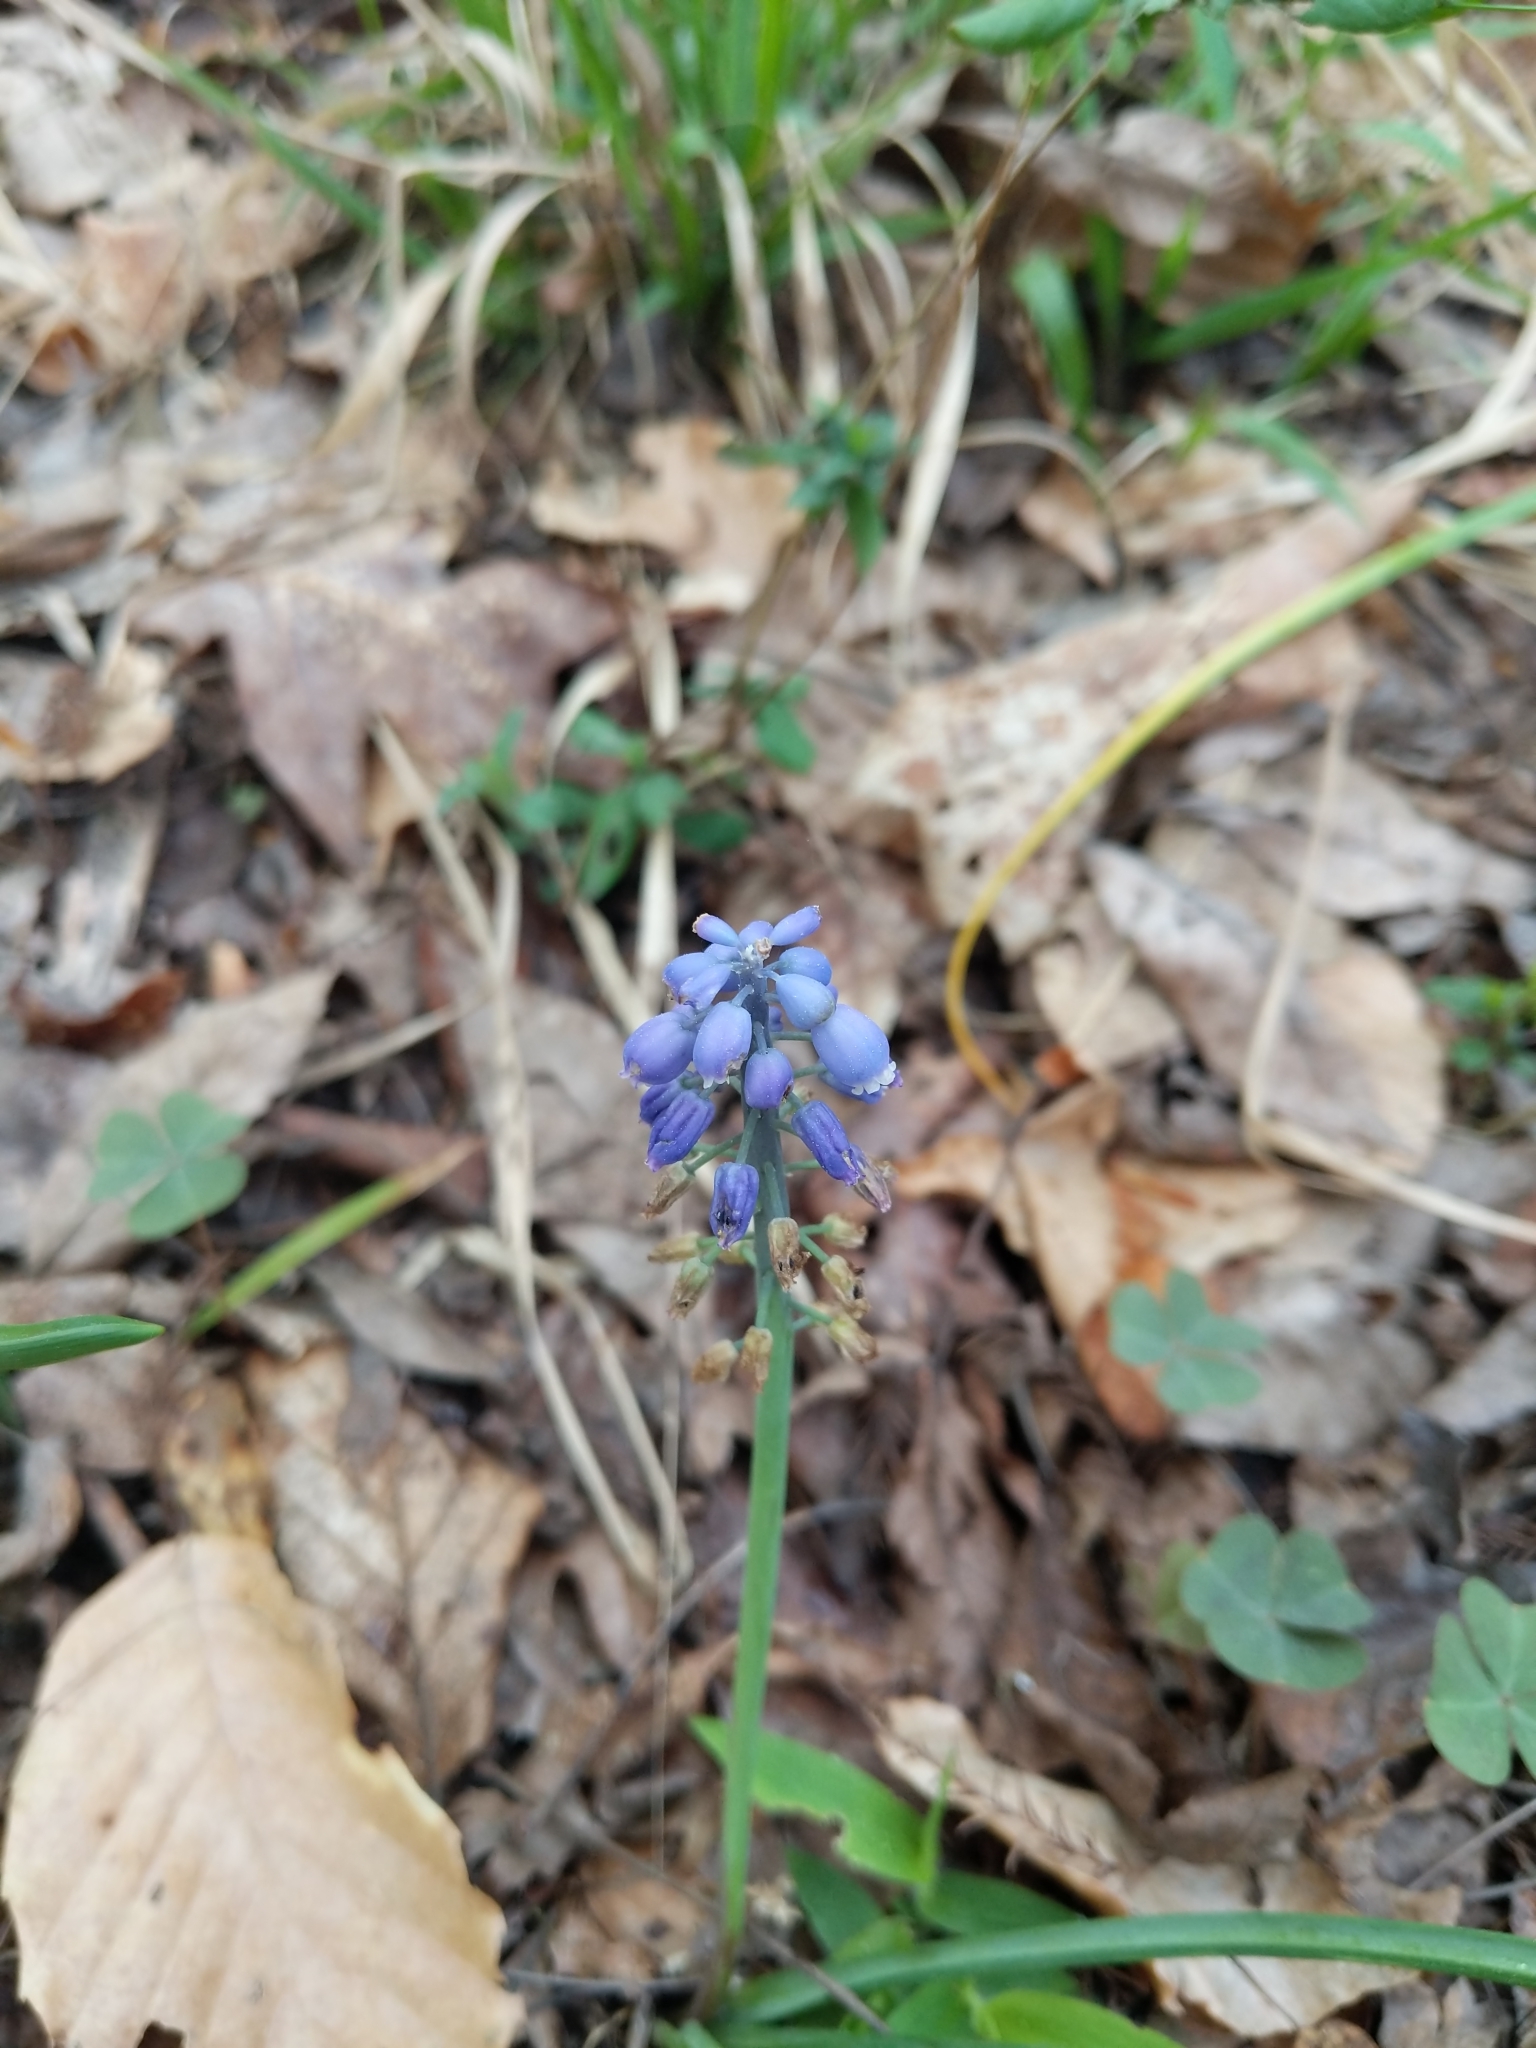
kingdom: Plantae
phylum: Tracheophyta
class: Liliopsida
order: Asparagales
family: Asparagaceae
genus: Muscari
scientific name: Muscari neglectum
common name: Grape-hyacinth
